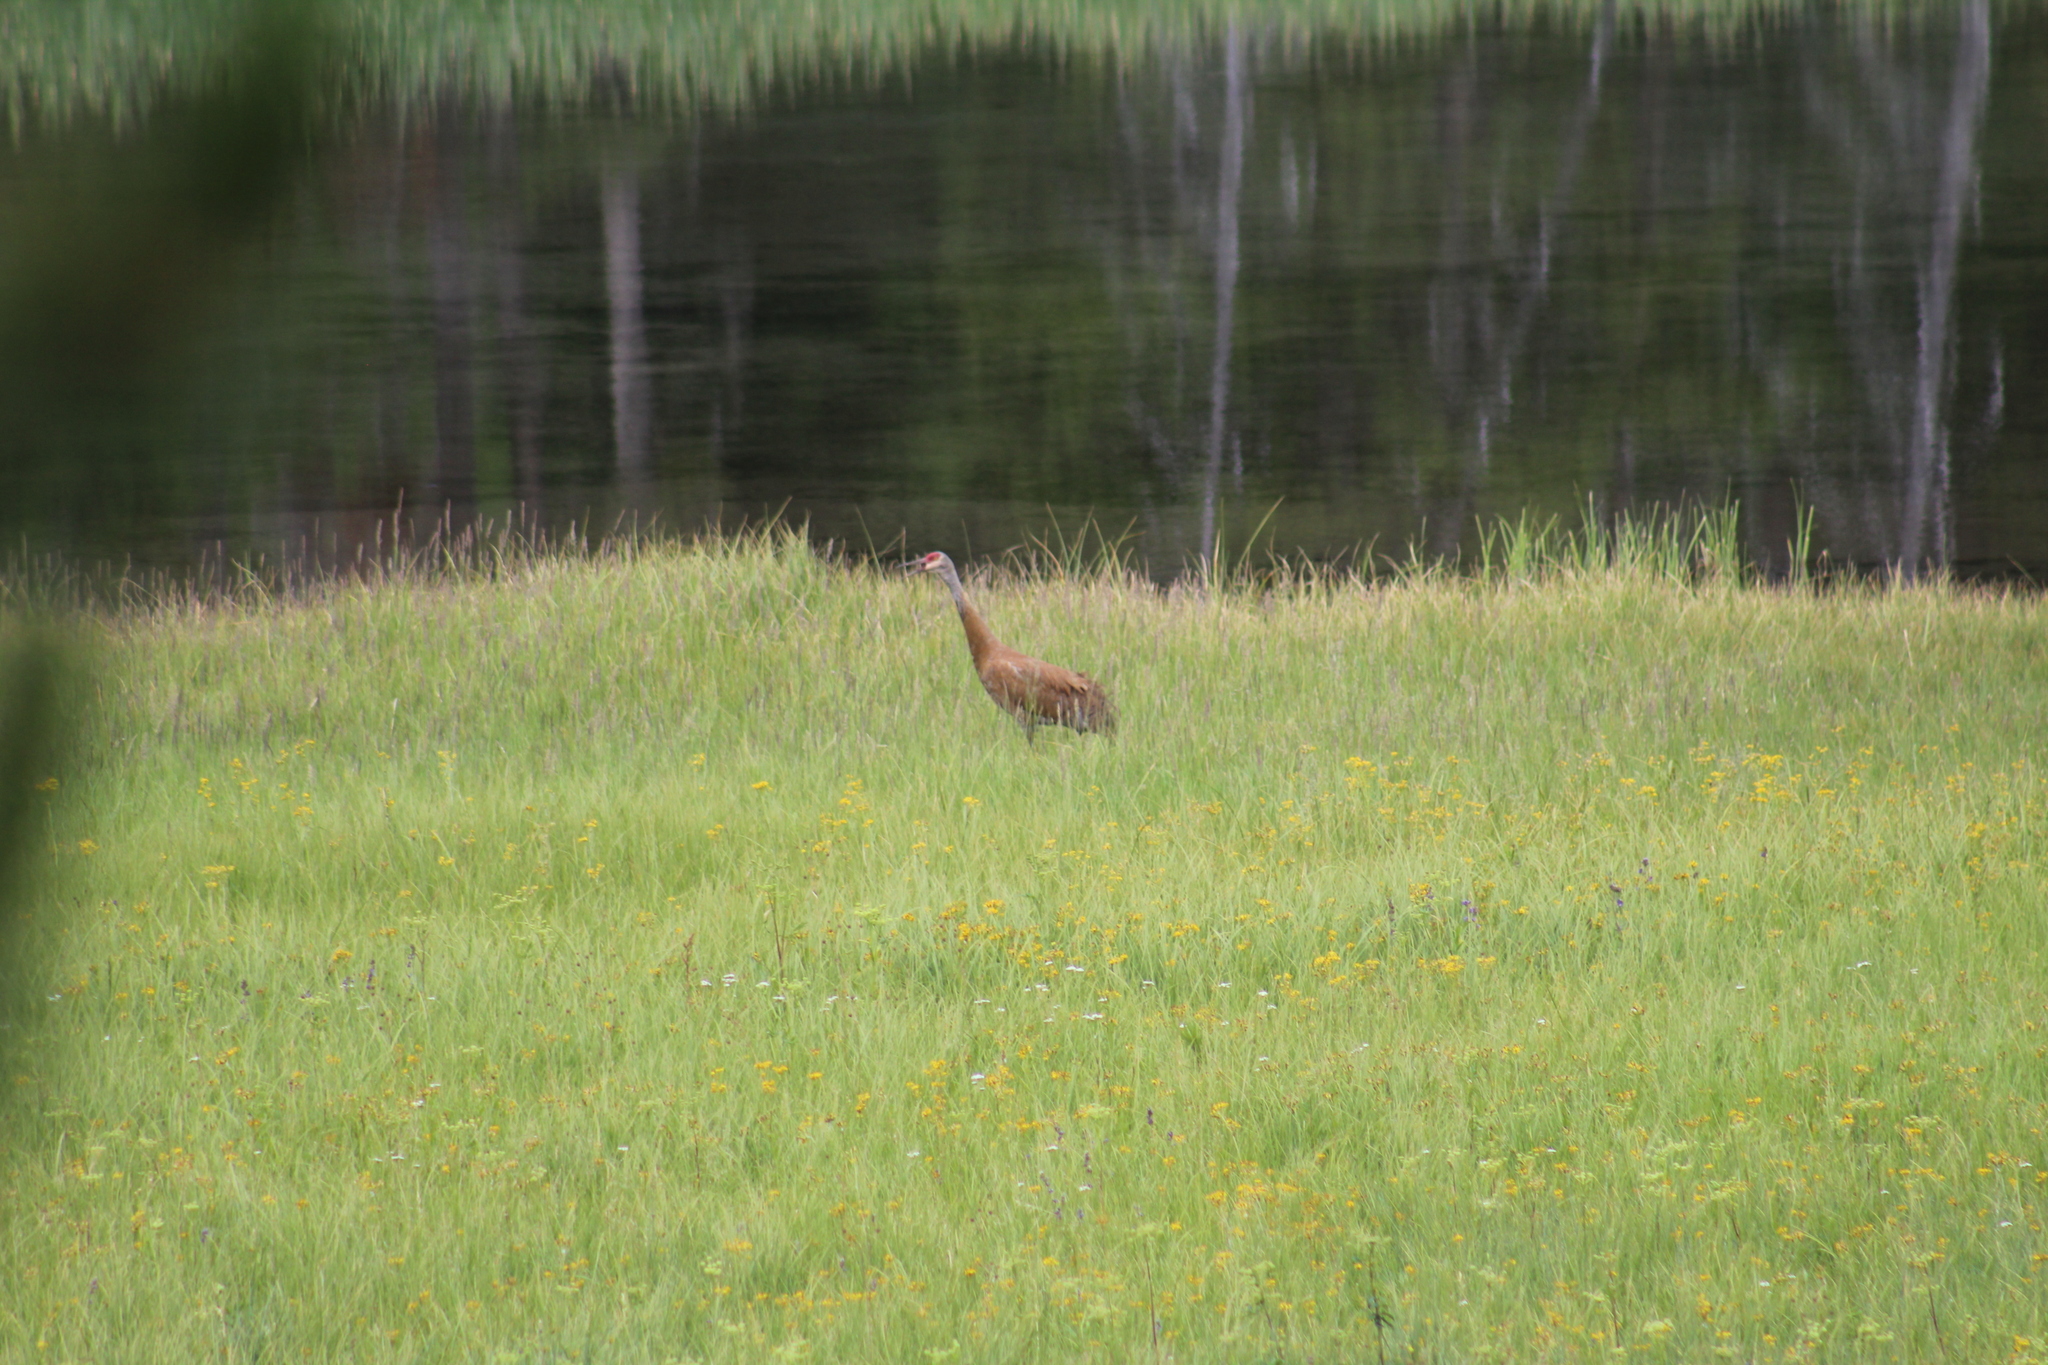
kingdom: Animalia
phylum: Chordata
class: Mammalia
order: Artiodactyla
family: Cervidae
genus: Cervus
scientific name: Cervus elaphus
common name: Red deer
